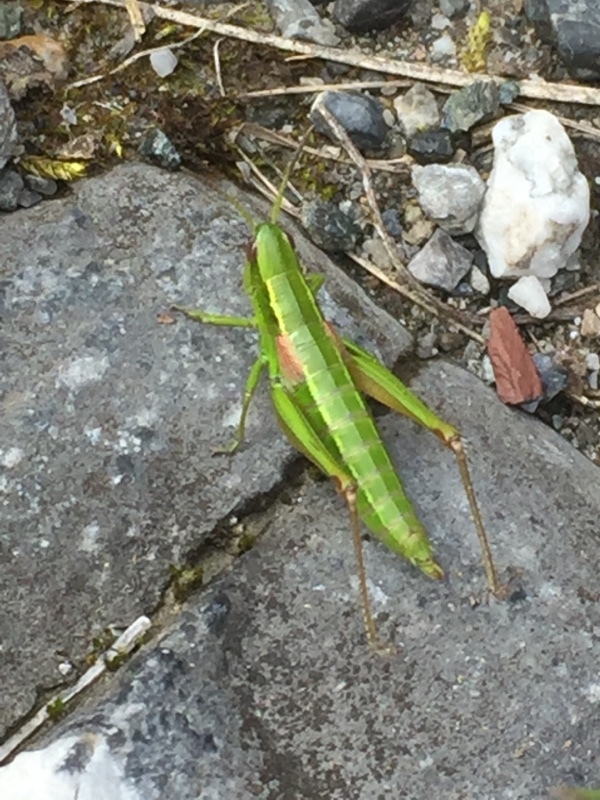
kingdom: Animalia
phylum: Arthropoda
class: Insecta
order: Orthoptera
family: Acrididae
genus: Euthystira
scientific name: Euthystira brachyptera
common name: Small gold grasshopper
